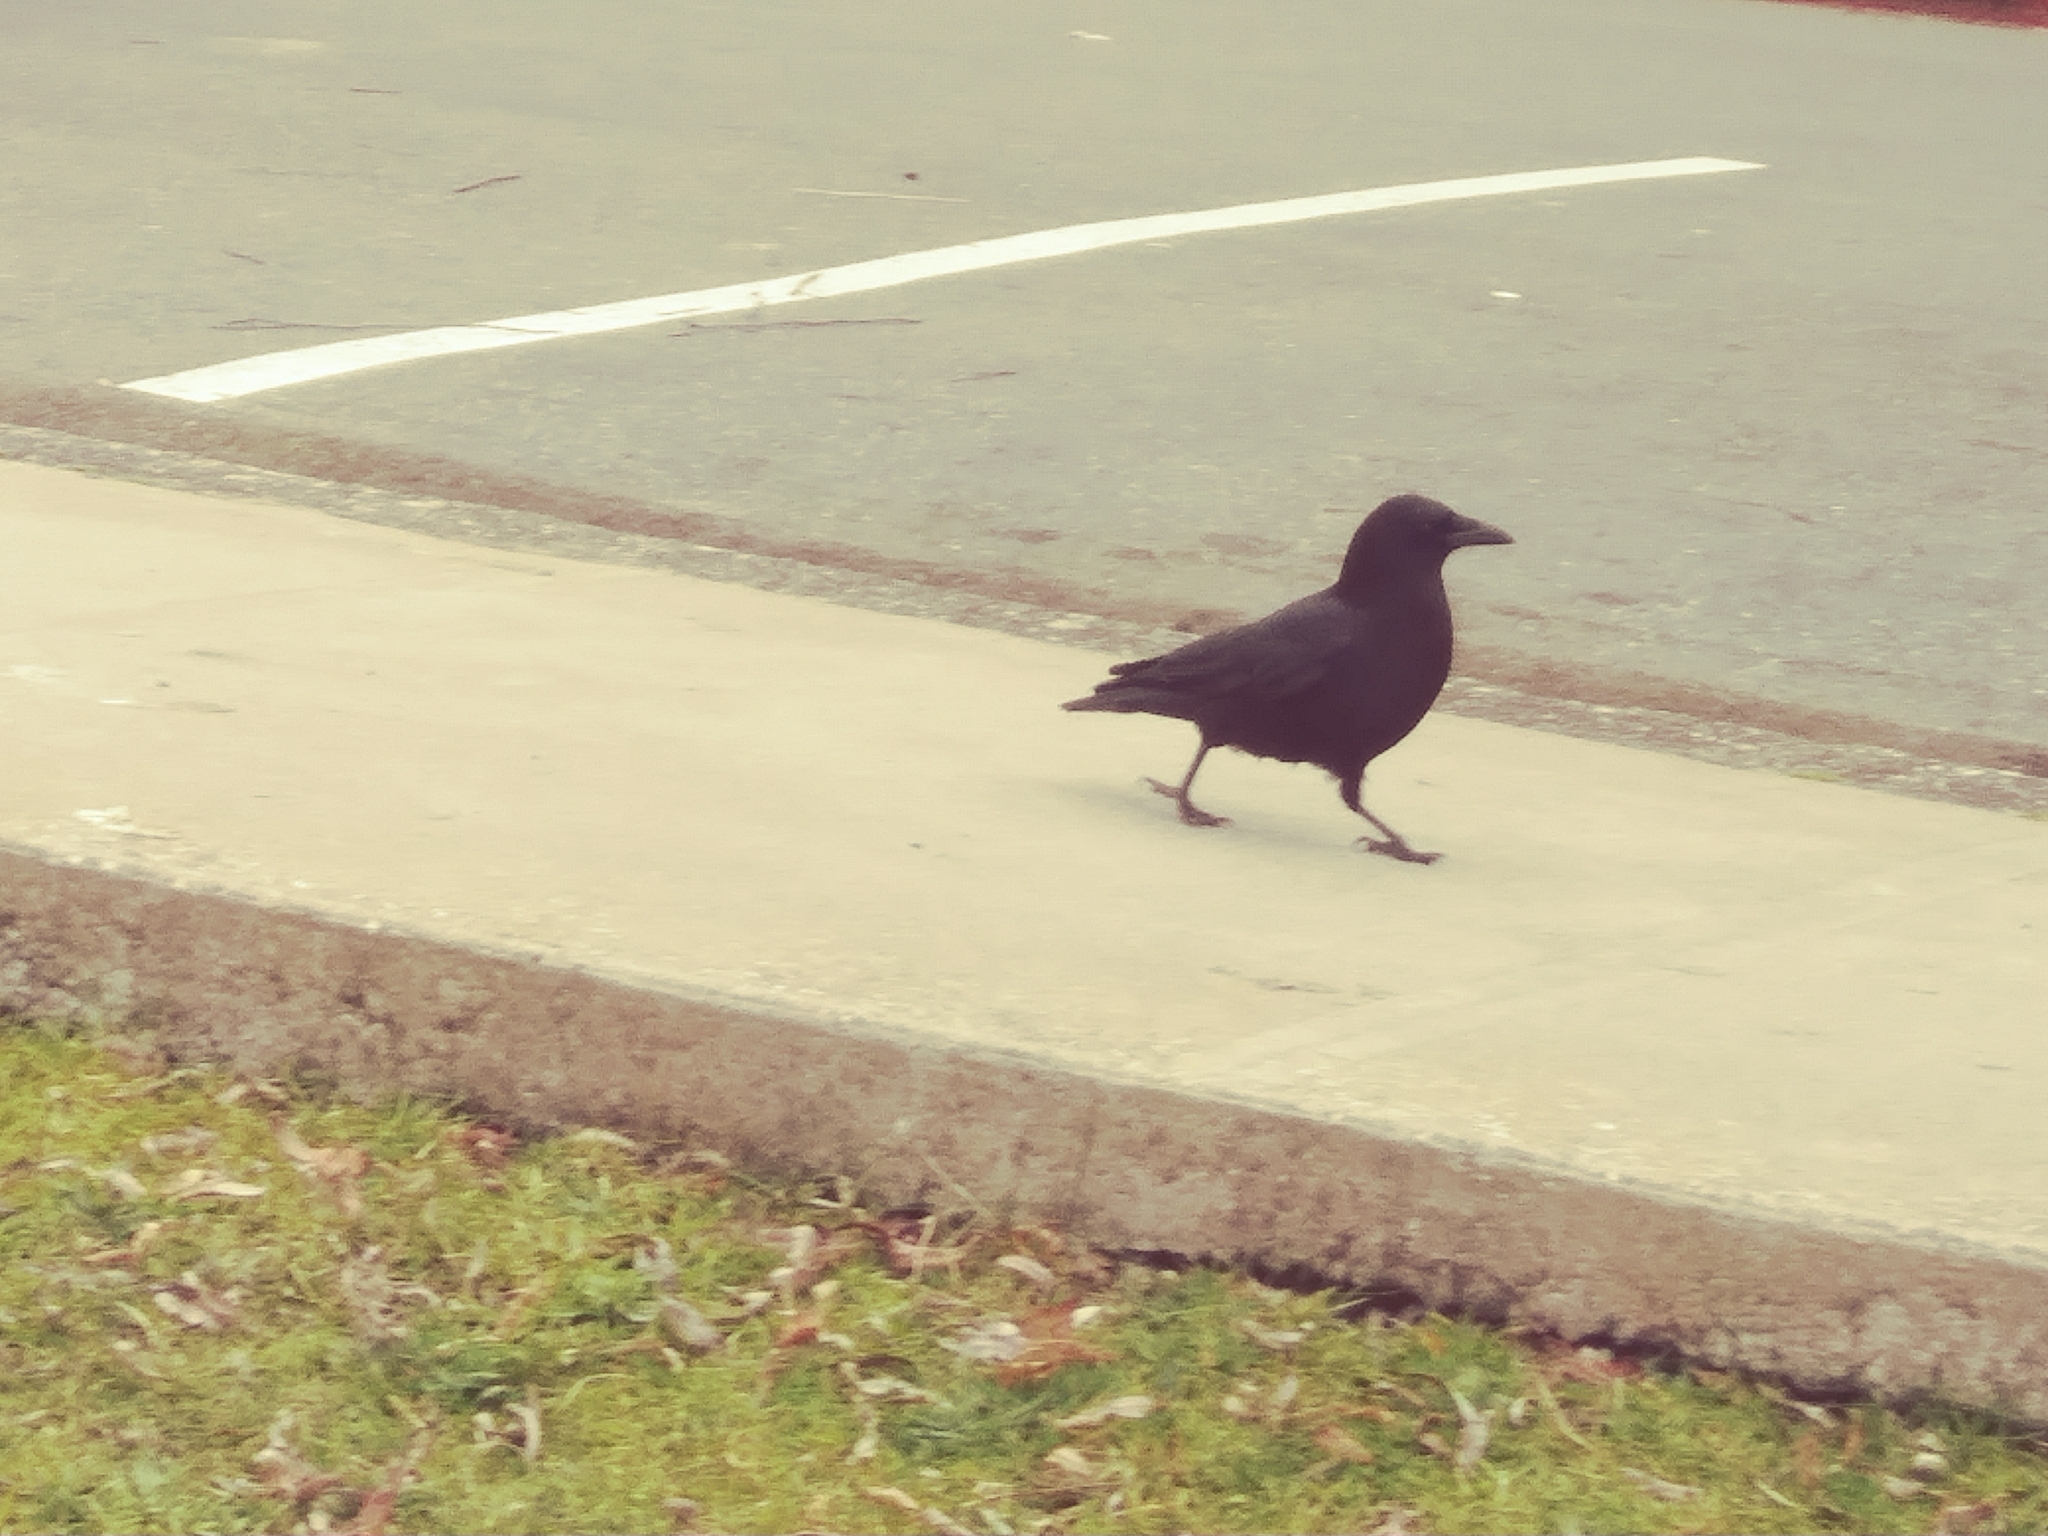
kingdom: Animalia
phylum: Chordata
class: Aves
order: Passeriformes
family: Corvidae
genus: Corvus
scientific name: Corvus brachyrhynchos
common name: American crow
